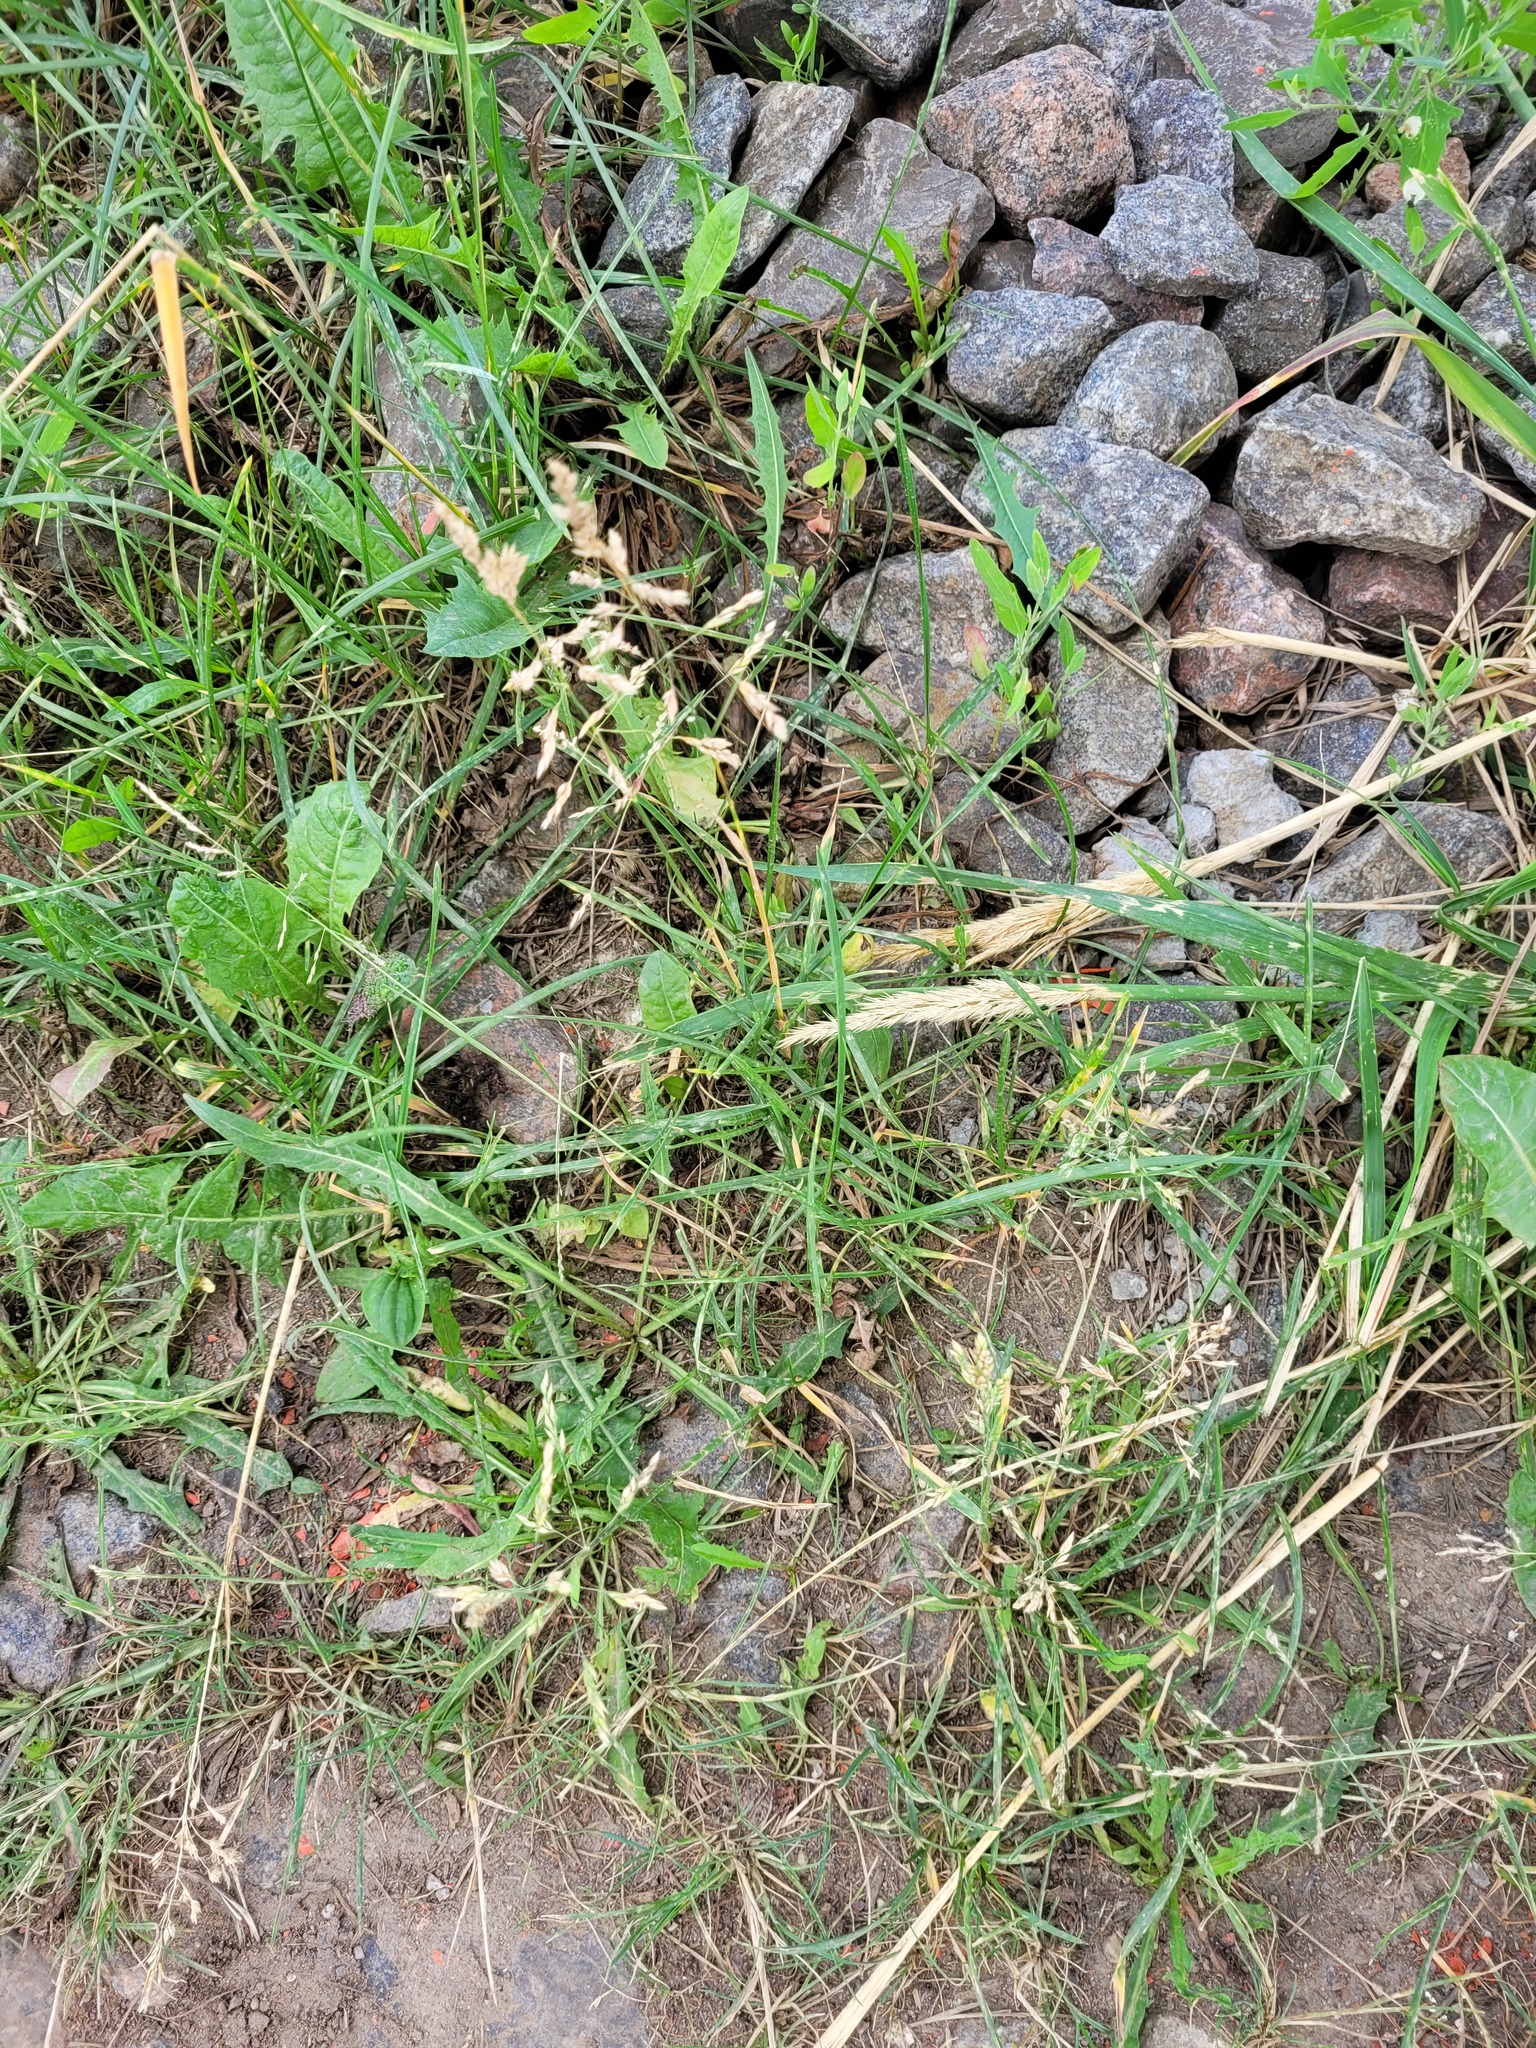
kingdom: Plantae
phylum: Tracheophyta
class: Liliopsida
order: Poales
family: Poaceae
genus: Poa
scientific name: Poa pratensis
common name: Kentucky bluegrass
